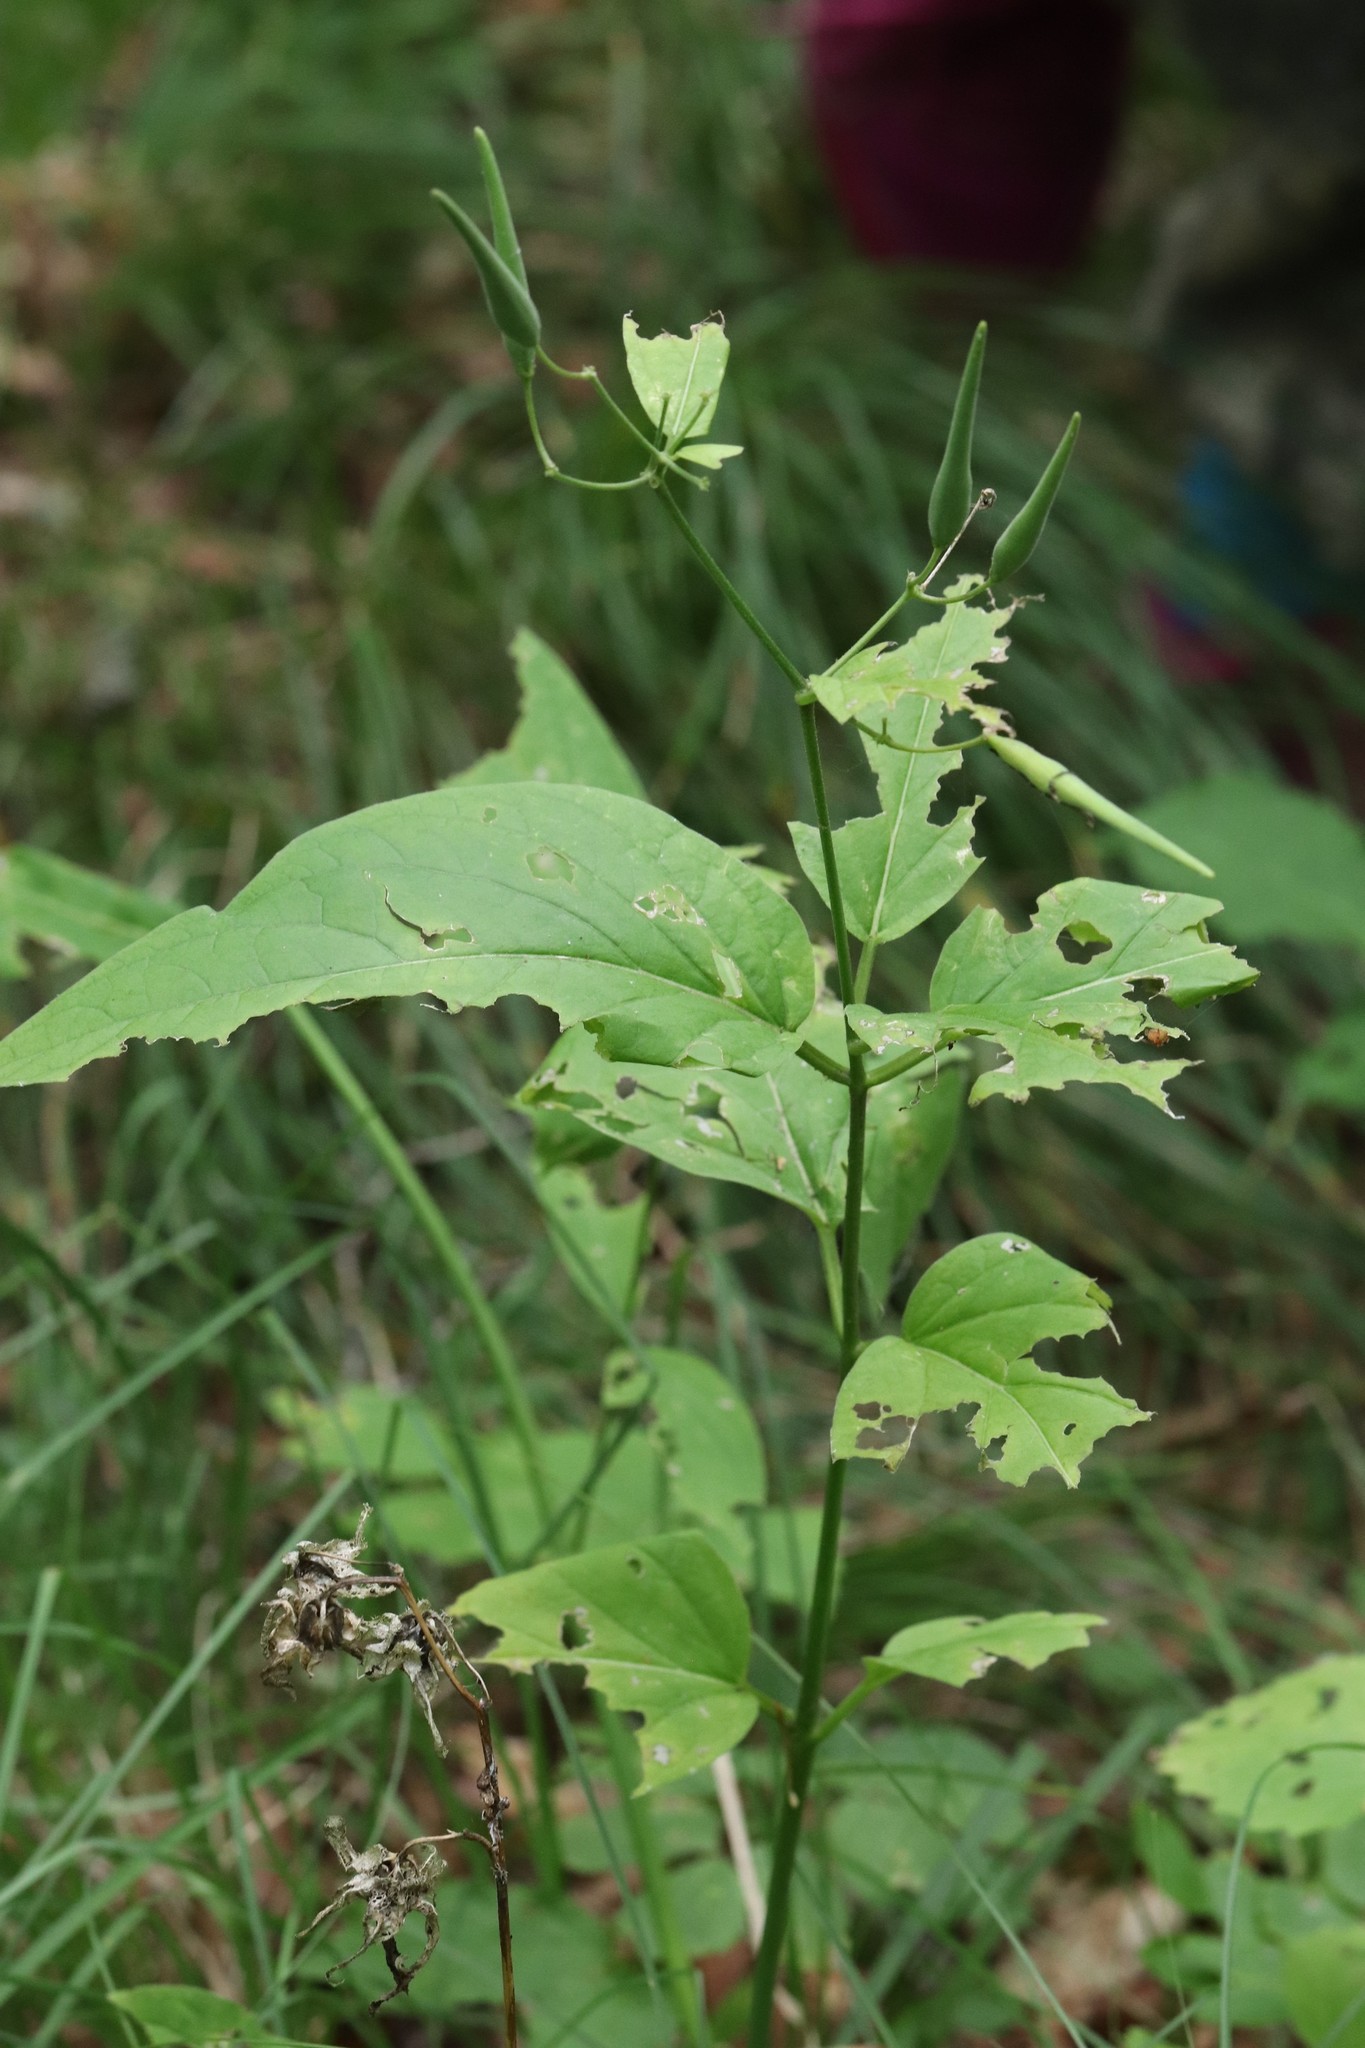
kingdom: Plantae
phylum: Tracheophyta
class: Magnoliopsida
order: Gentianales
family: Apocynaceae
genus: Vincetoxicum
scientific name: Vincetoxicum ascyrifolium
